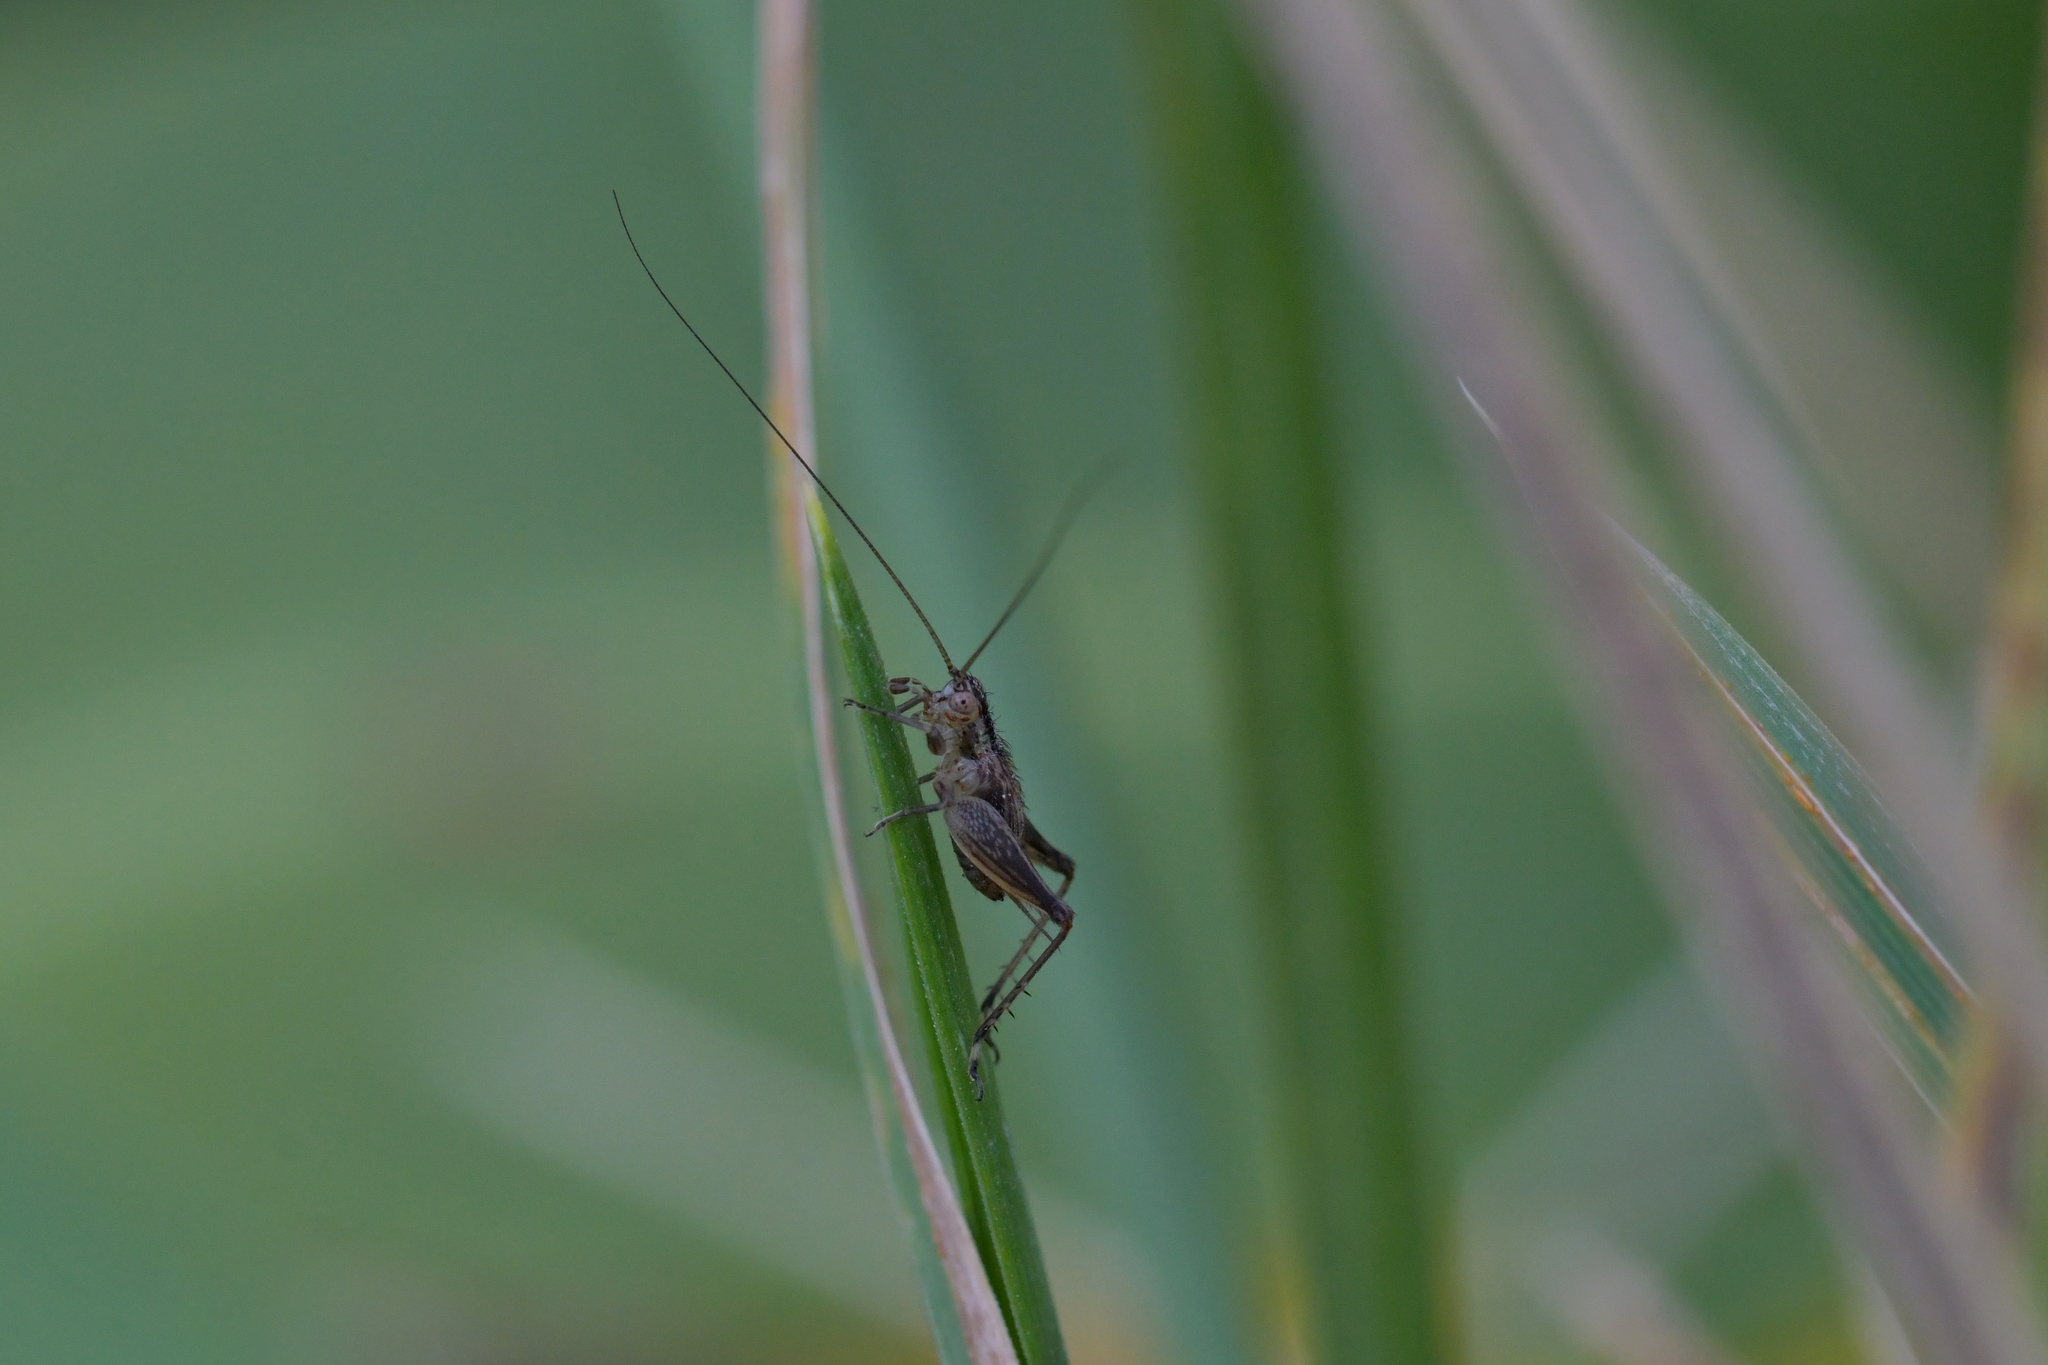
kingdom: Animalia
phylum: Arthropoda
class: Insecta
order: Orthoptera
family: Trigonidiidae
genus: Metioche
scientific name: Metioche maorica
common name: New zealand trig
